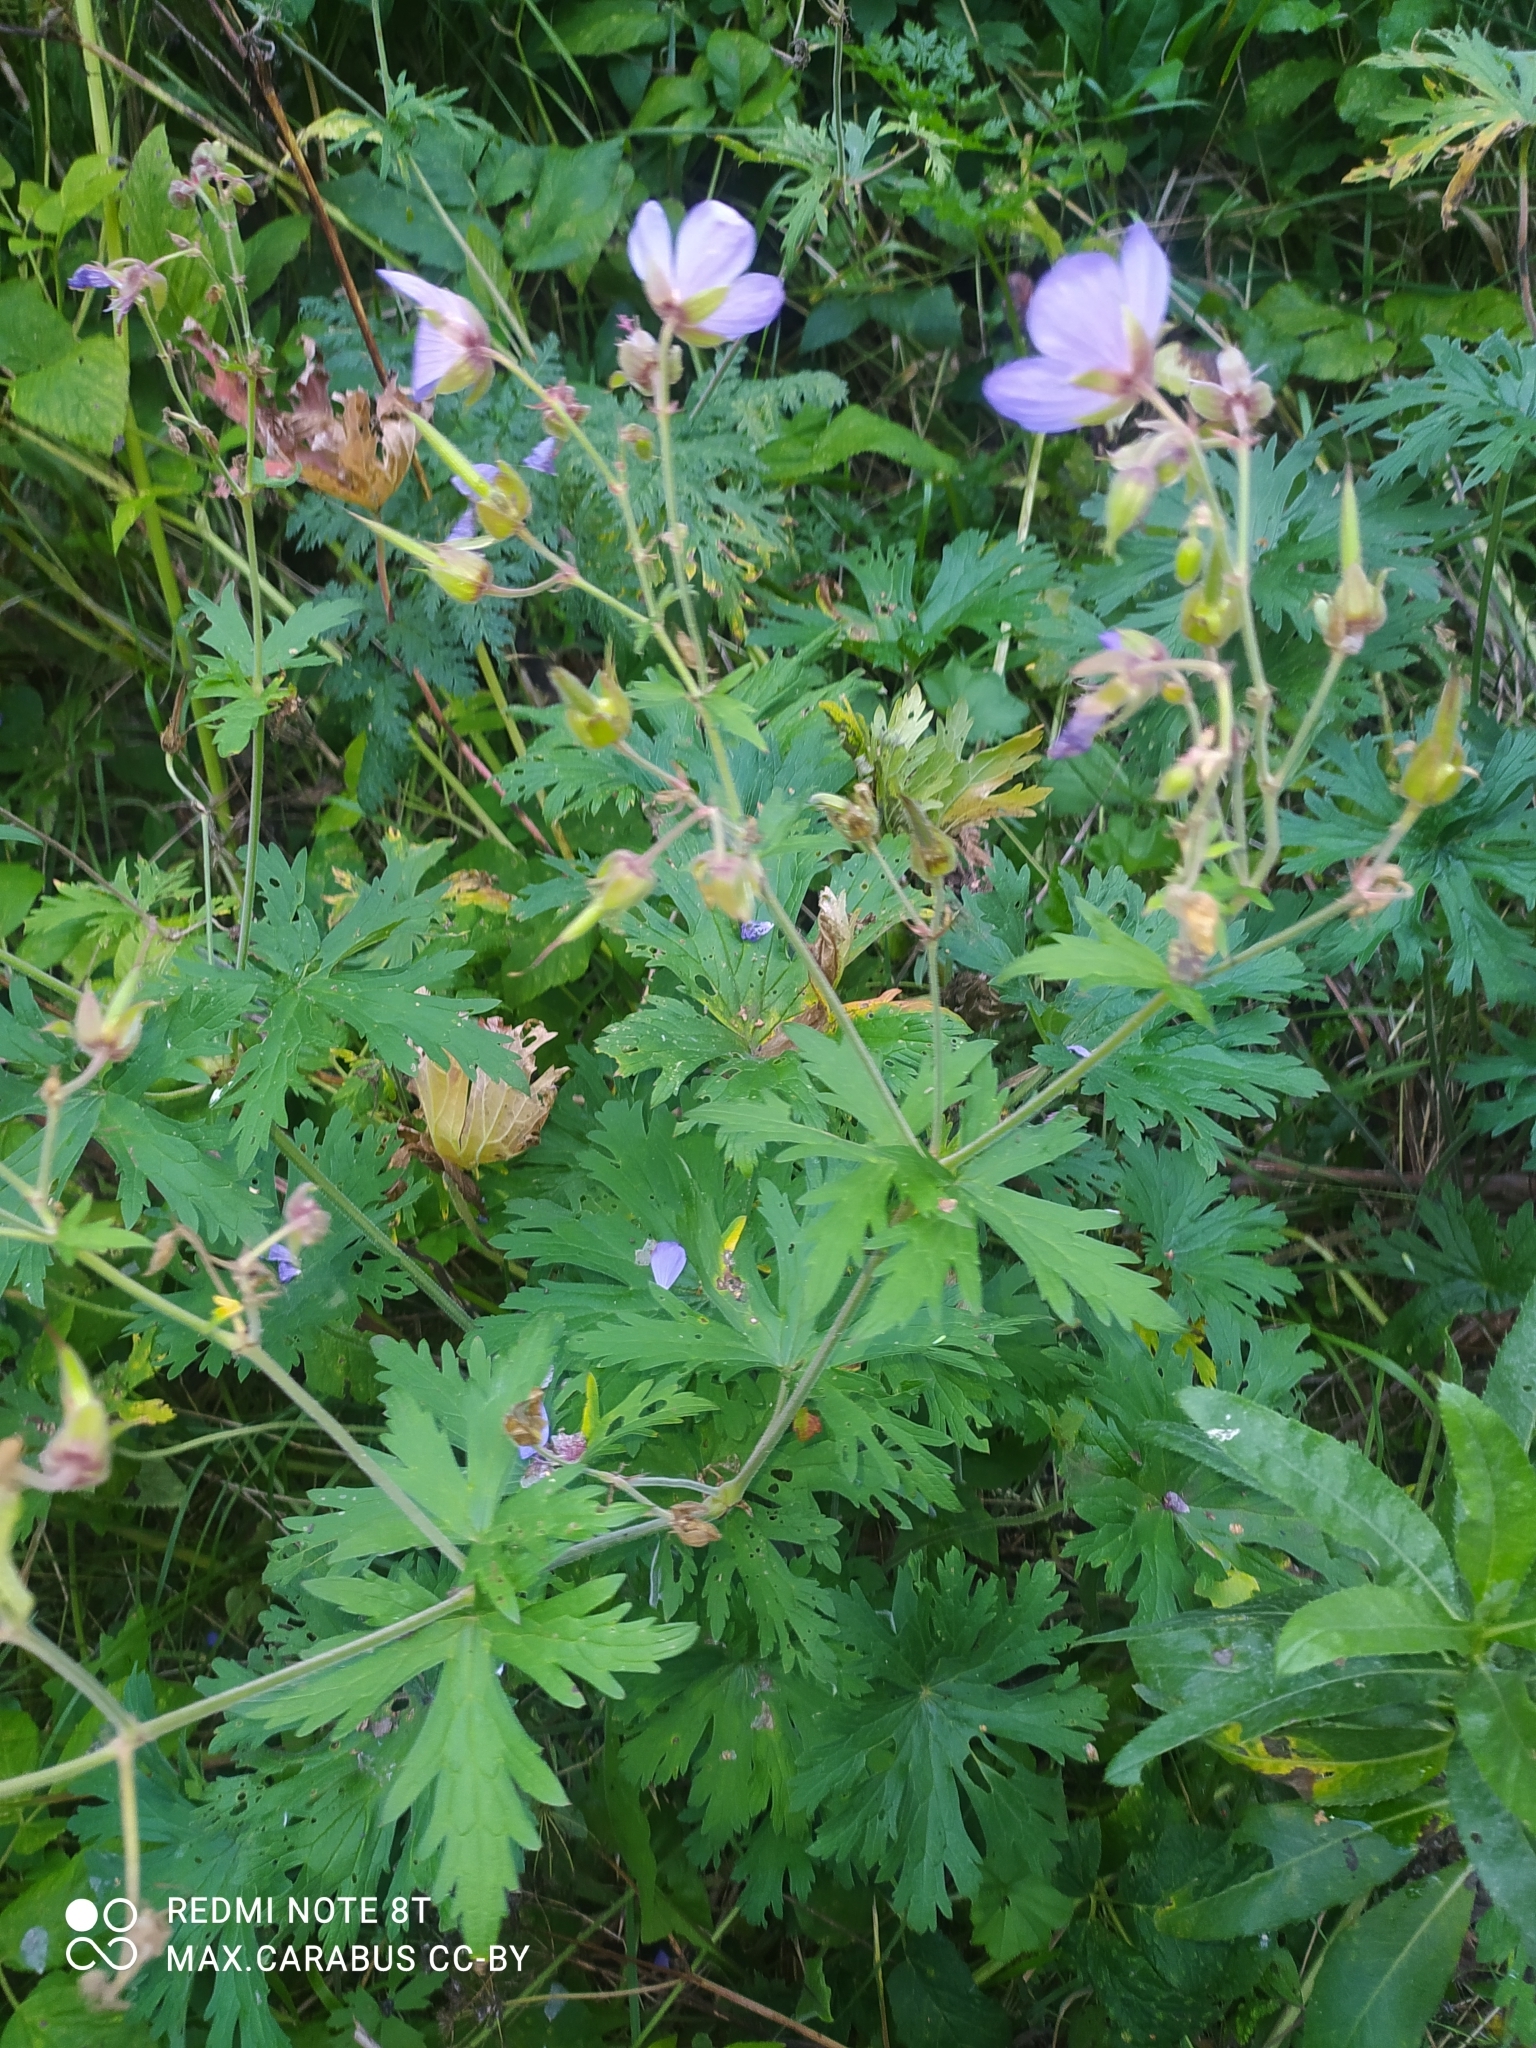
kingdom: Plantae
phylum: Tracheophyta
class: Magnoliopsida
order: Geraniales
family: Geraniaceae
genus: Geranium
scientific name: Geranium pratense
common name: Meadow crane's-bill
